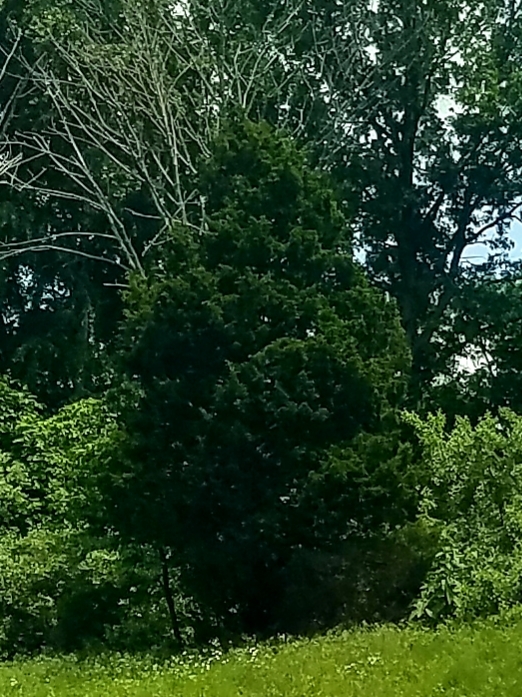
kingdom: Plantae
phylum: Tracheophyta
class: Pinopsida
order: Pinales
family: Cupressaceae
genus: Juniperus
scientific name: Juniperus virginiana
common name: Red juniper
